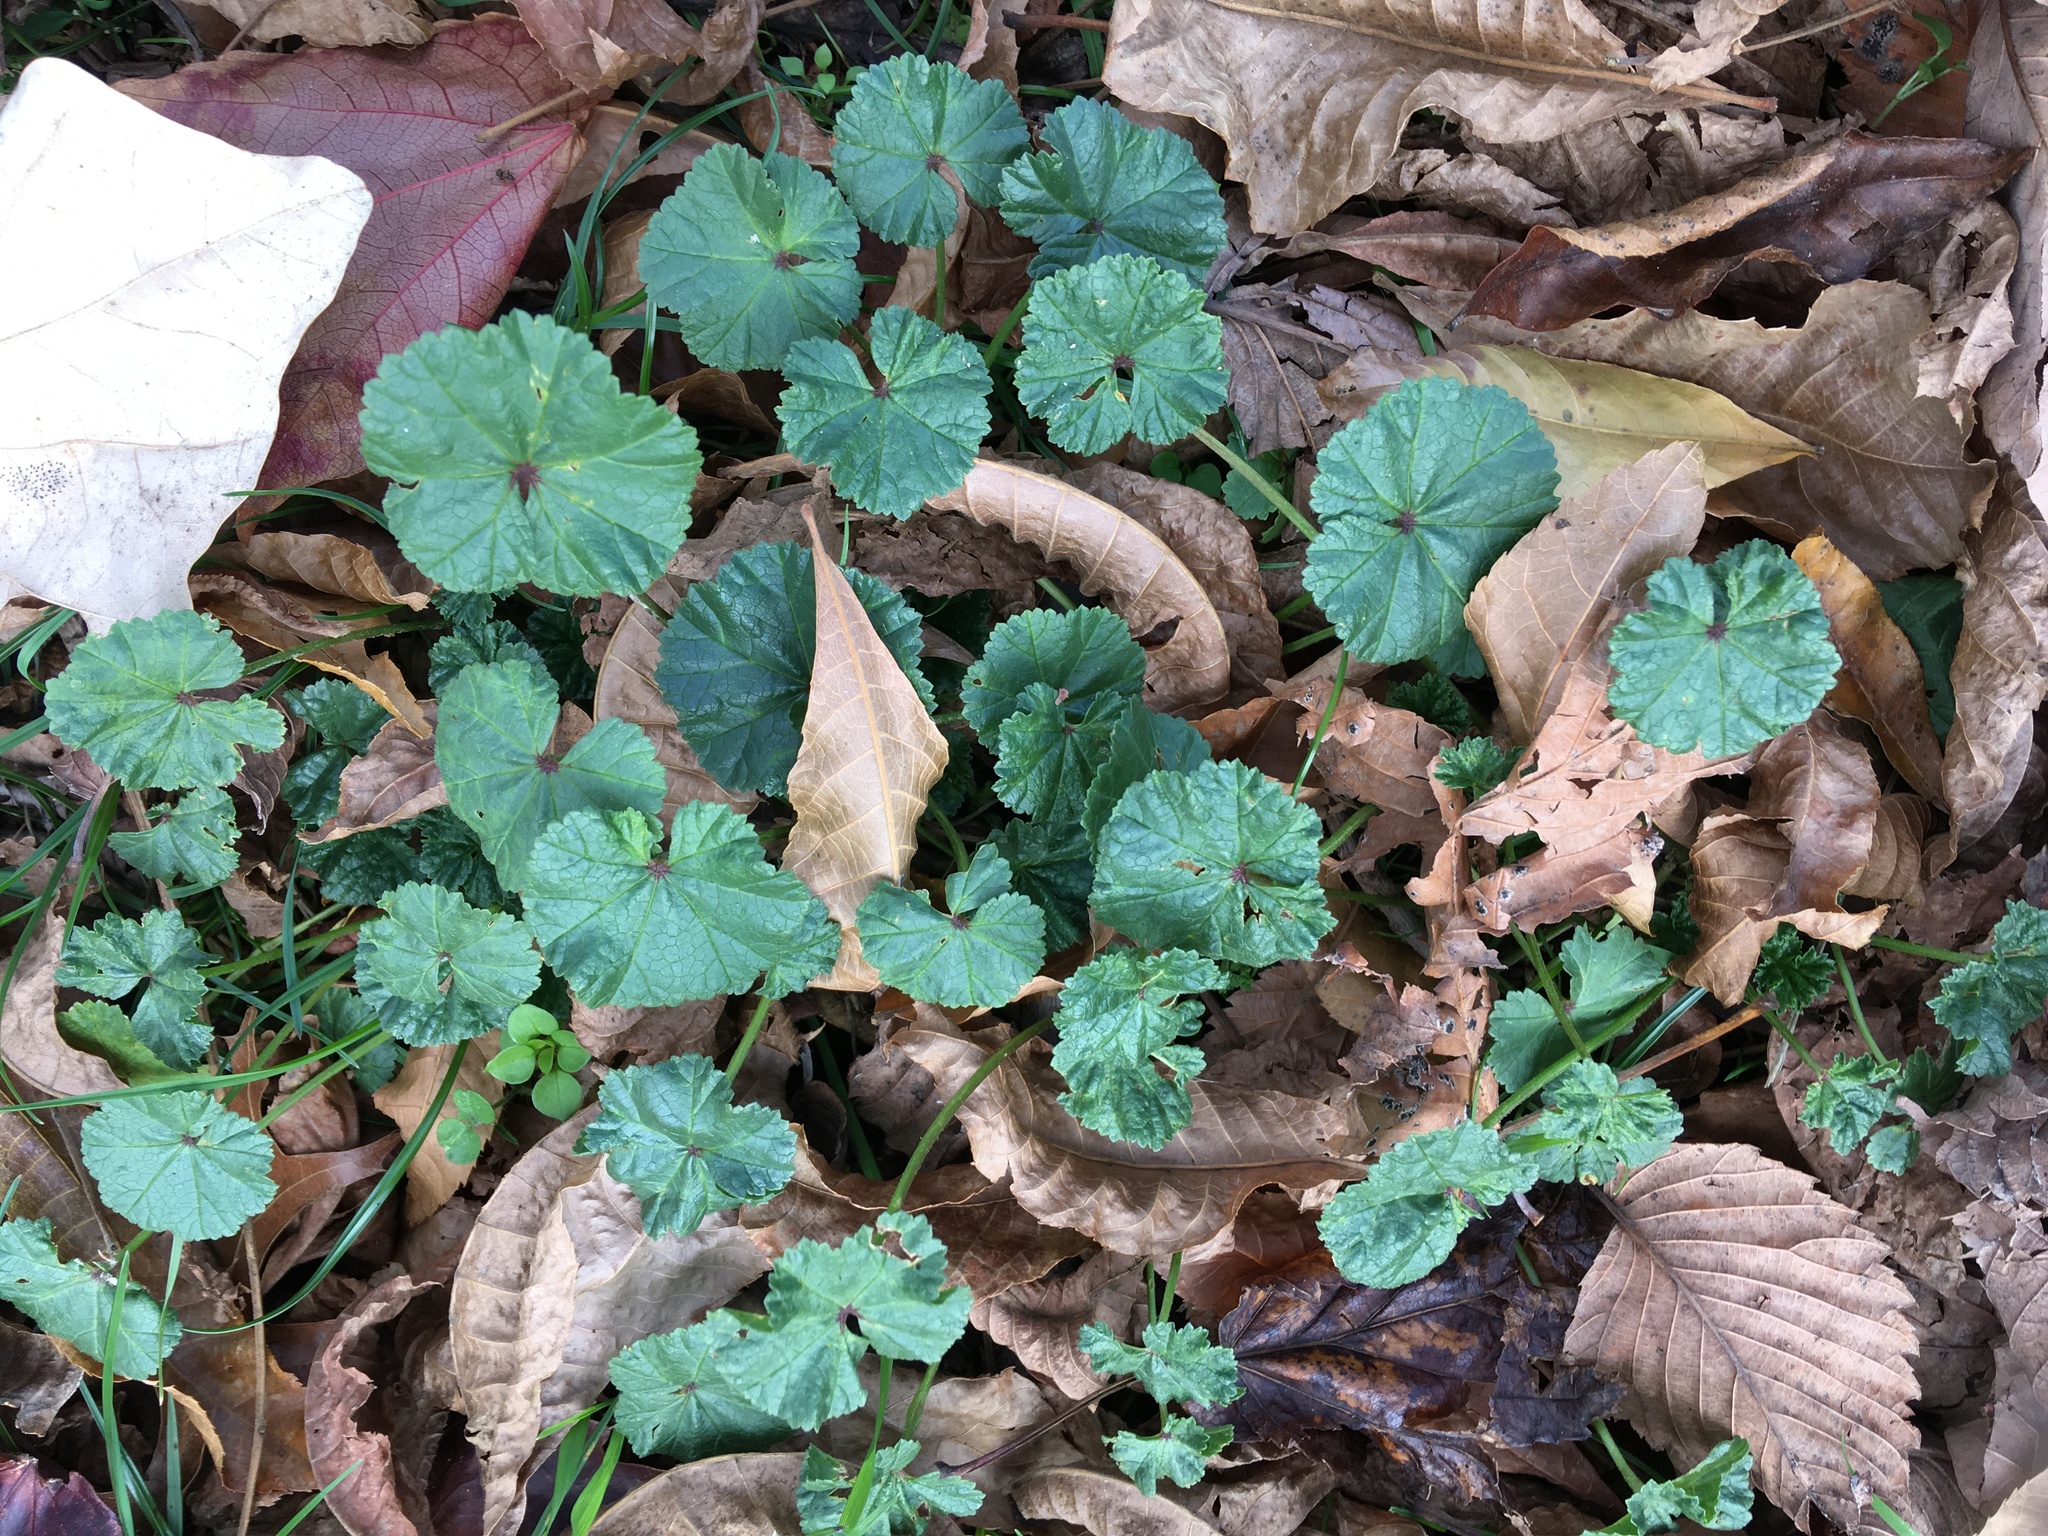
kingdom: Plantae
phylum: Tracheophyta
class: Magnoliopsida
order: Malvales
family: Malvaceae
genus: Malva
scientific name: Malva neglecta
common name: Common mallow
